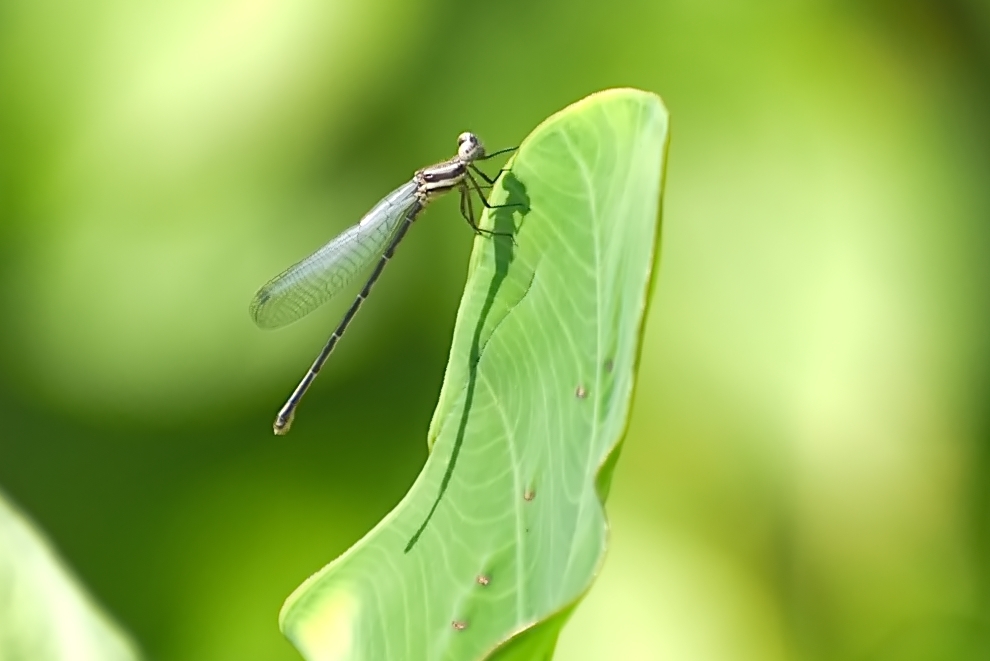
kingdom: Animalia
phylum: Arthropoda
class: Insecta
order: Odonata
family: Platycnemididae
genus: Onychargia
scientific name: Onychargia atrocyana
